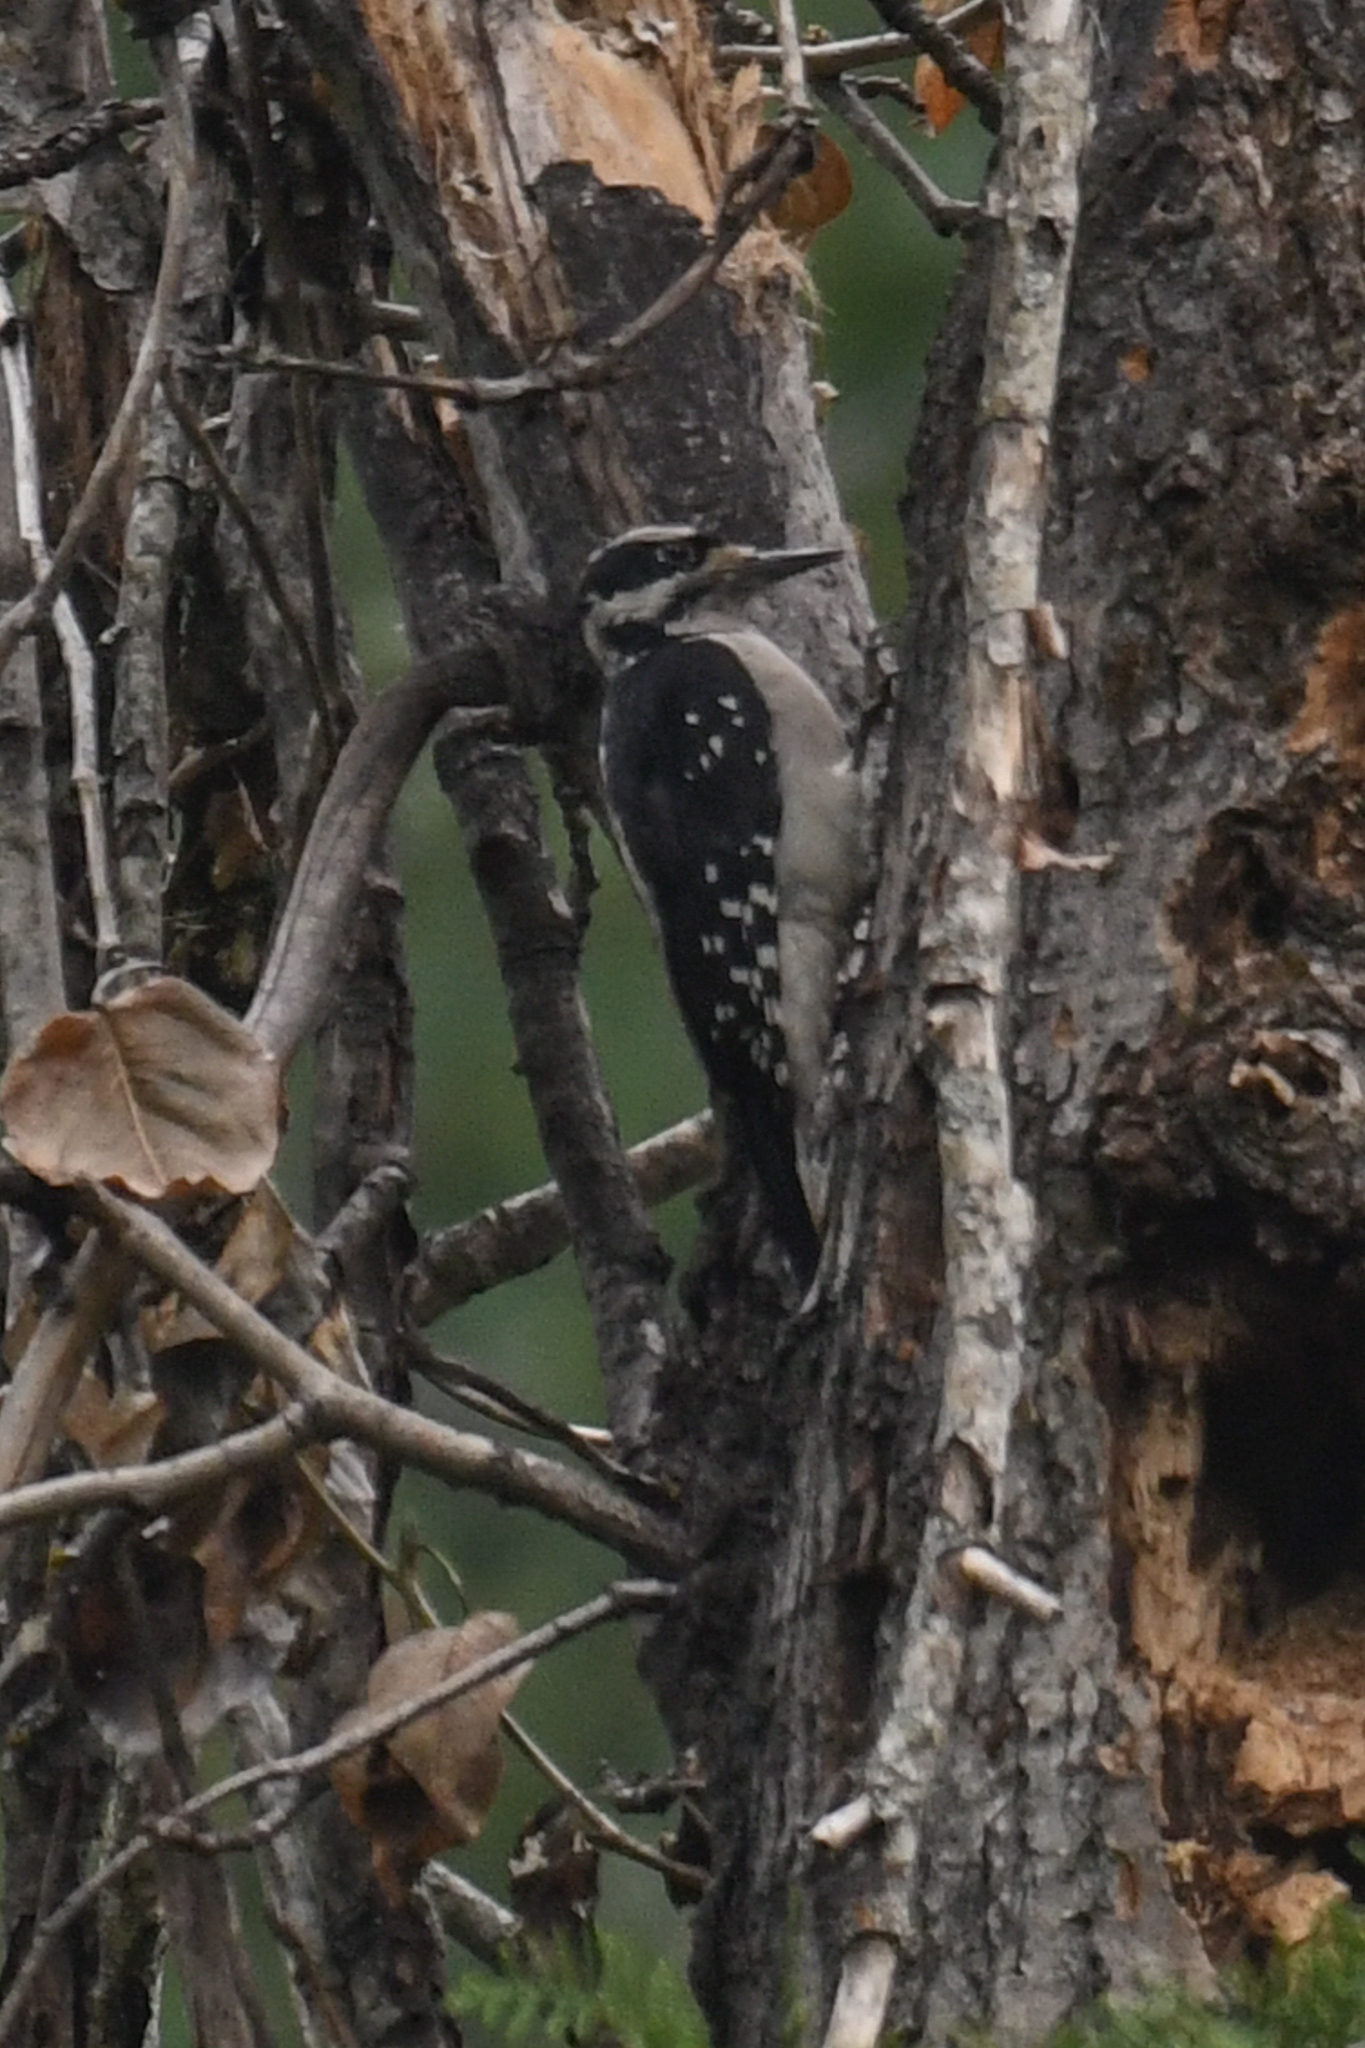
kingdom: Animalia
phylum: Chordata
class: Aves
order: Piciformes
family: Picidae
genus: Leuconotopicus
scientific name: Leuconotopicus villosus
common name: Hairy woodpecker
